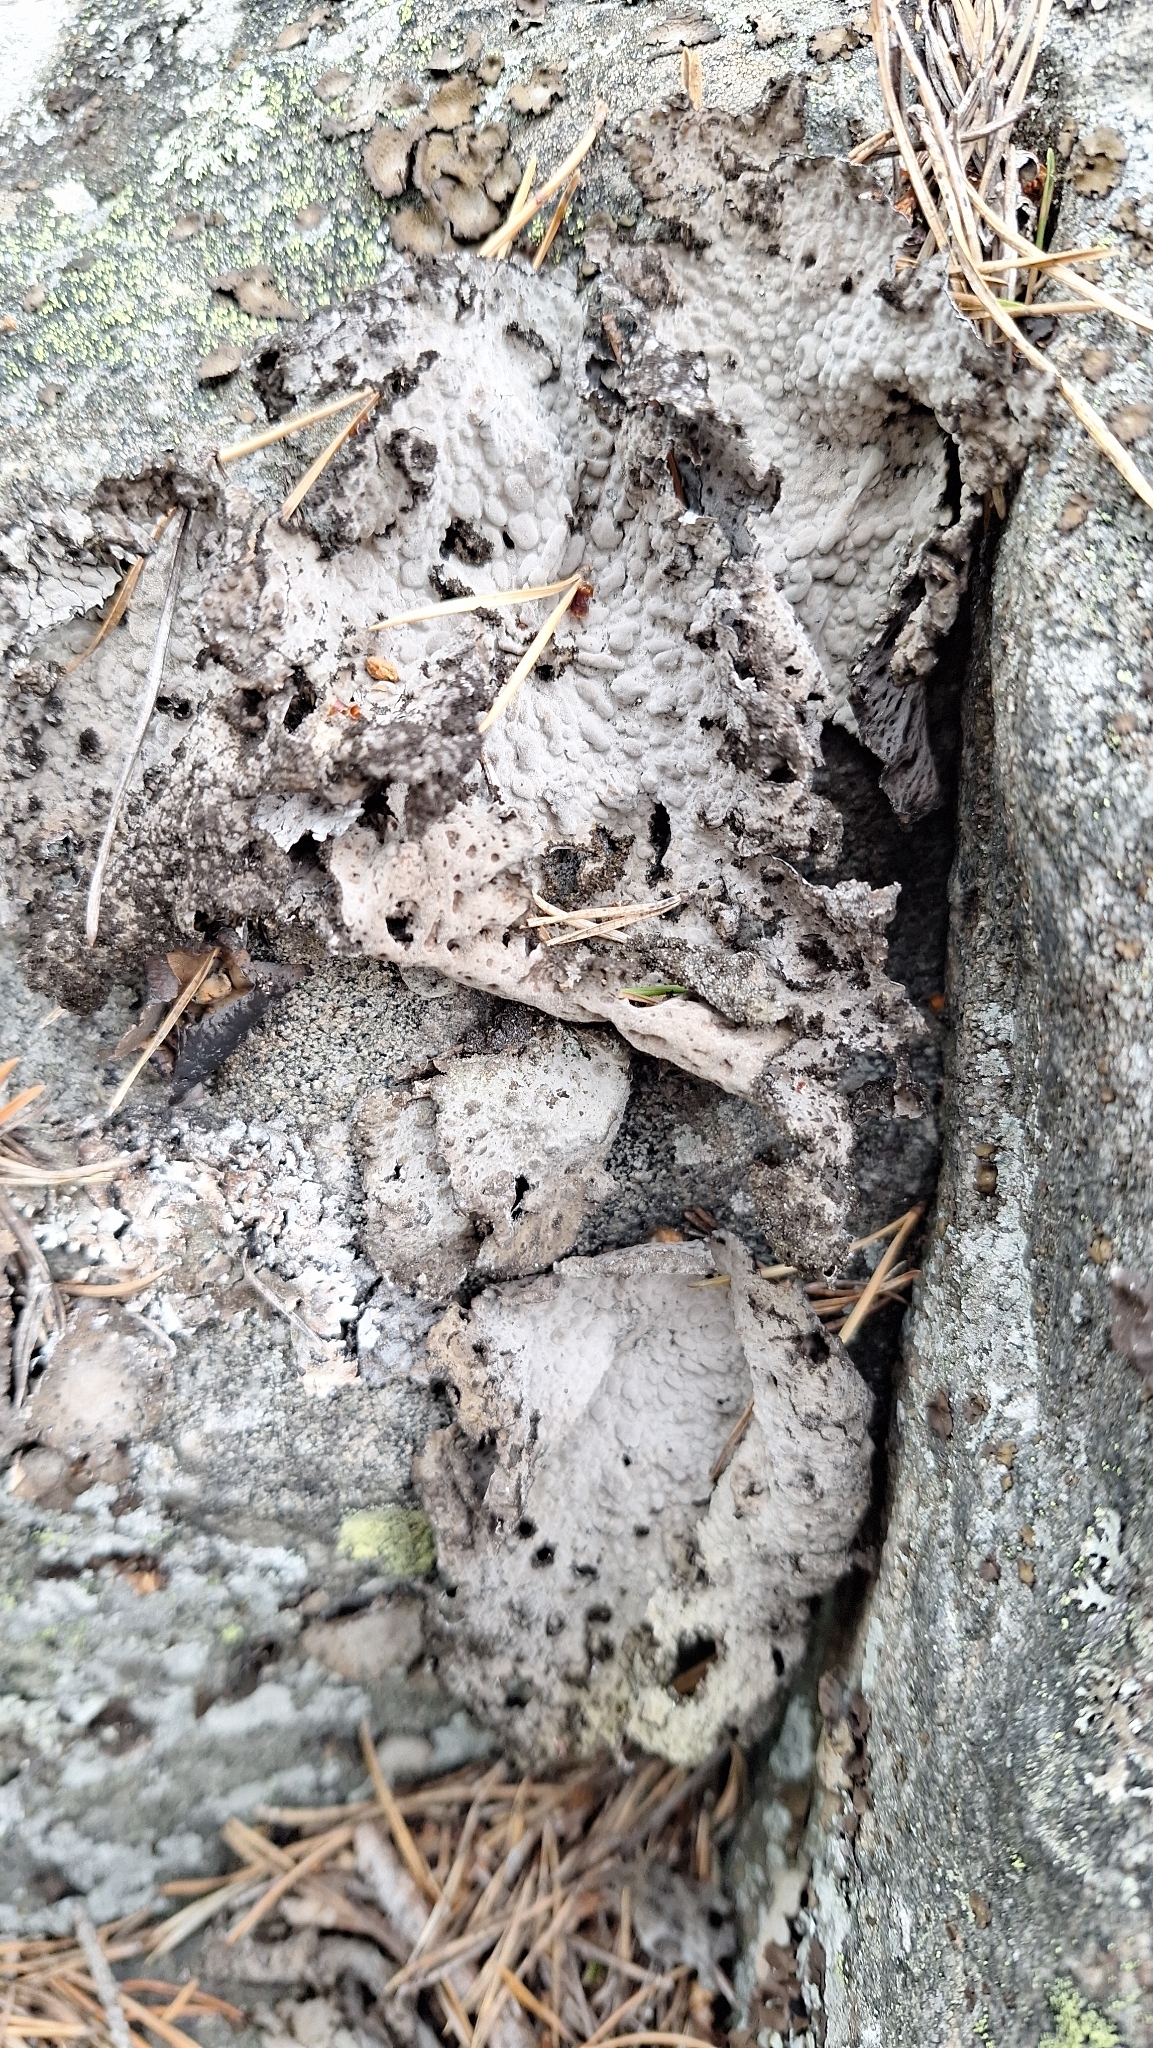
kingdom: Fungi
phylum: Ascomycota
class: Lecanoromycetes
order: Umbilicariales
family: Umbilicariaceae
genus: Lasallia
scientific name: Lasallia pustulata
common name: Blistered toadskin lichen
